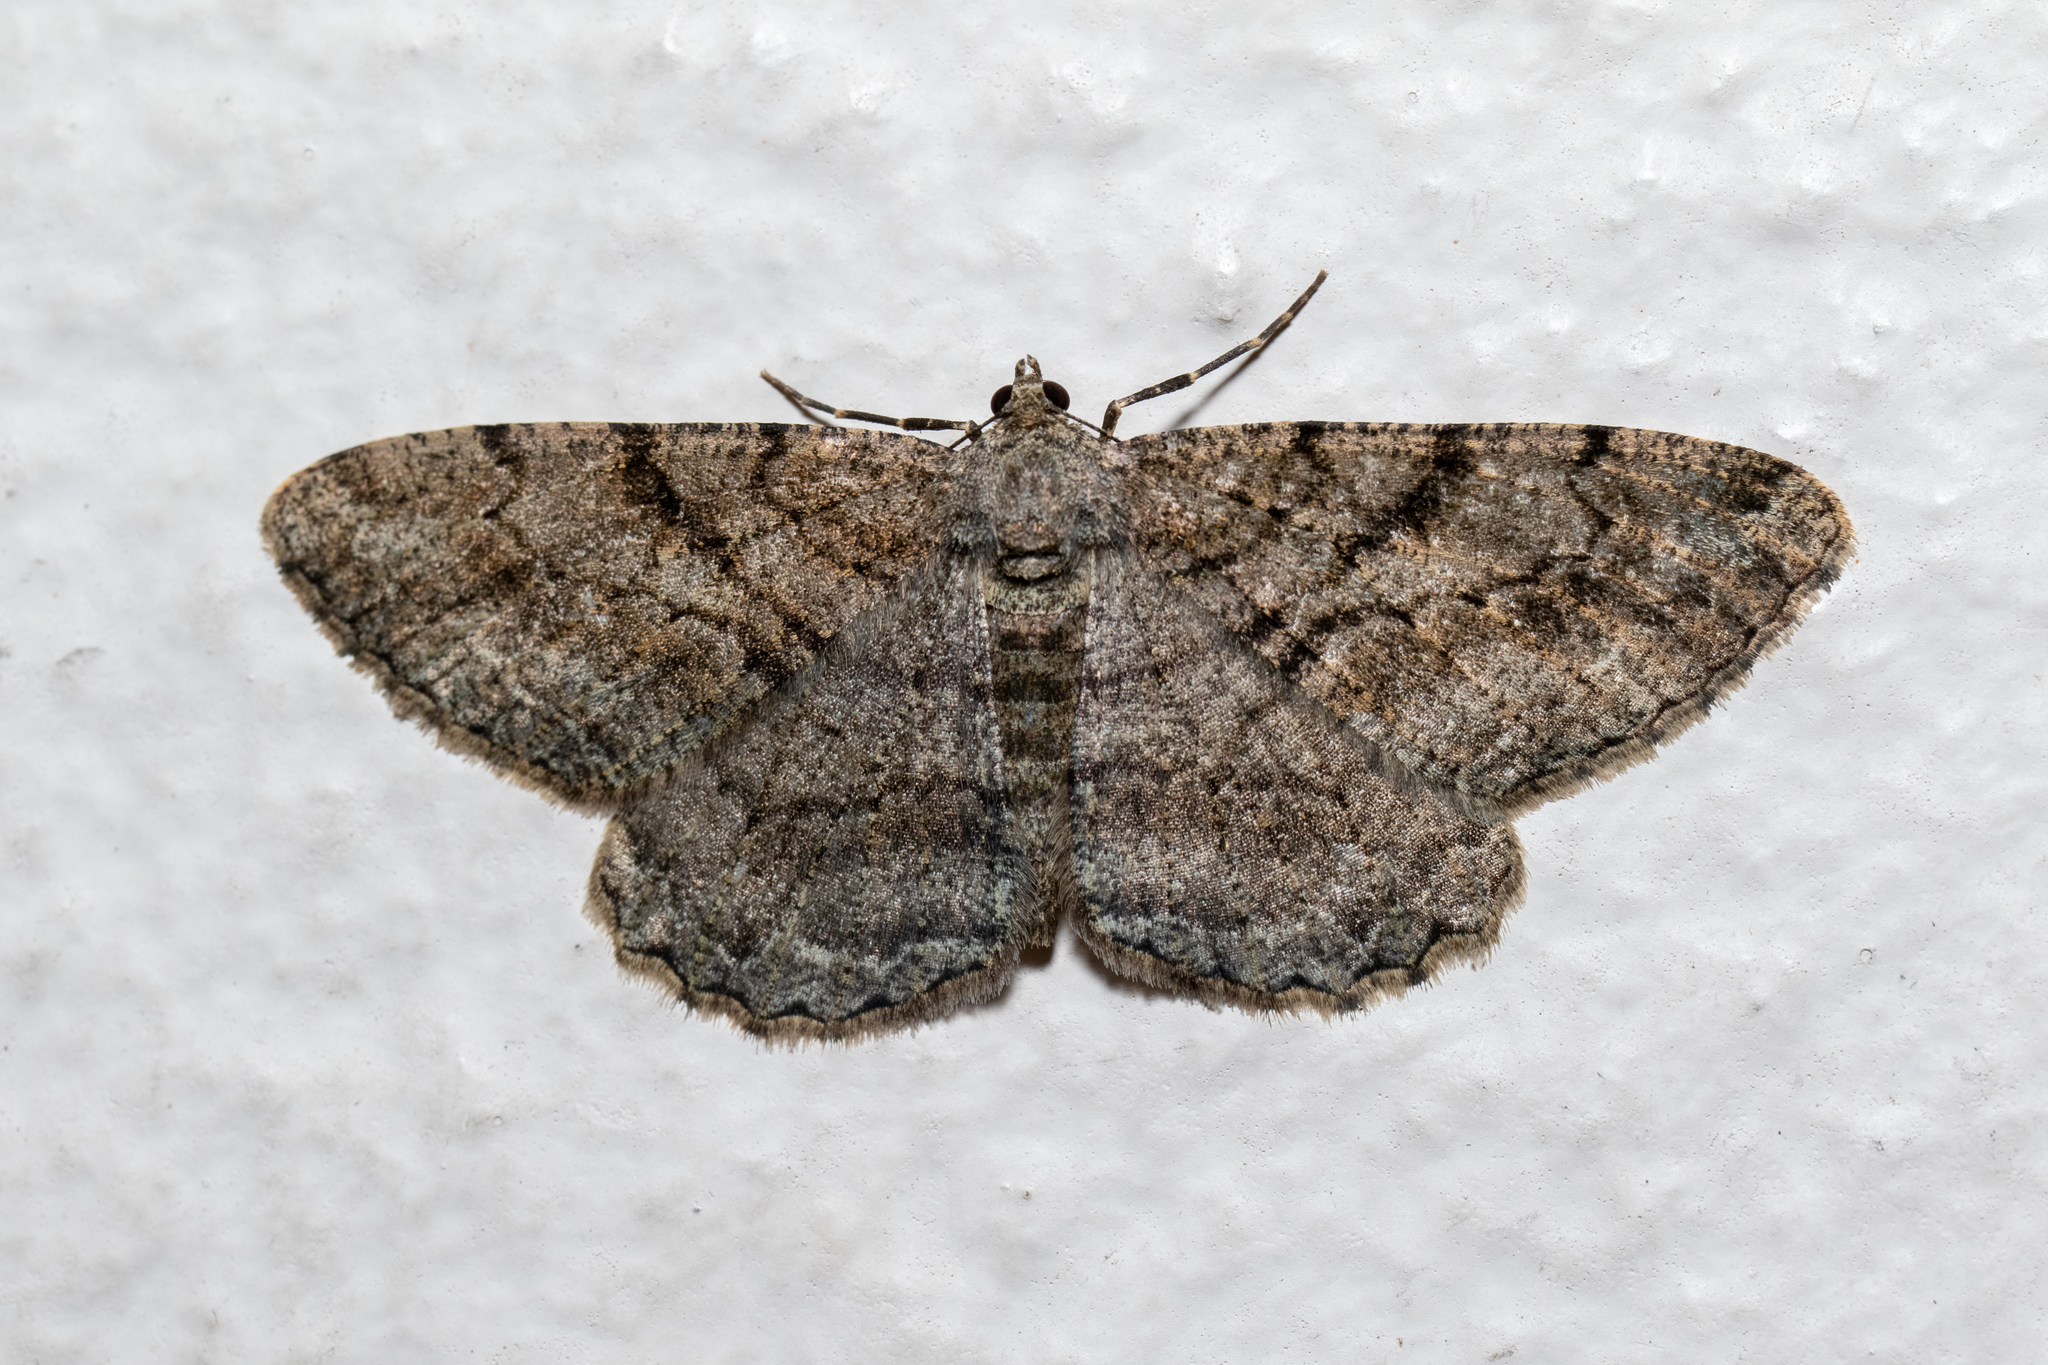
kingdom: Animalia
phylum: Arthropoda
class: Insecta
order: Lepidoptera
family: Geometridae
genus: Peribatodes
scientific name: Peribatodes rhomboidaria
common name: Willow beauty
